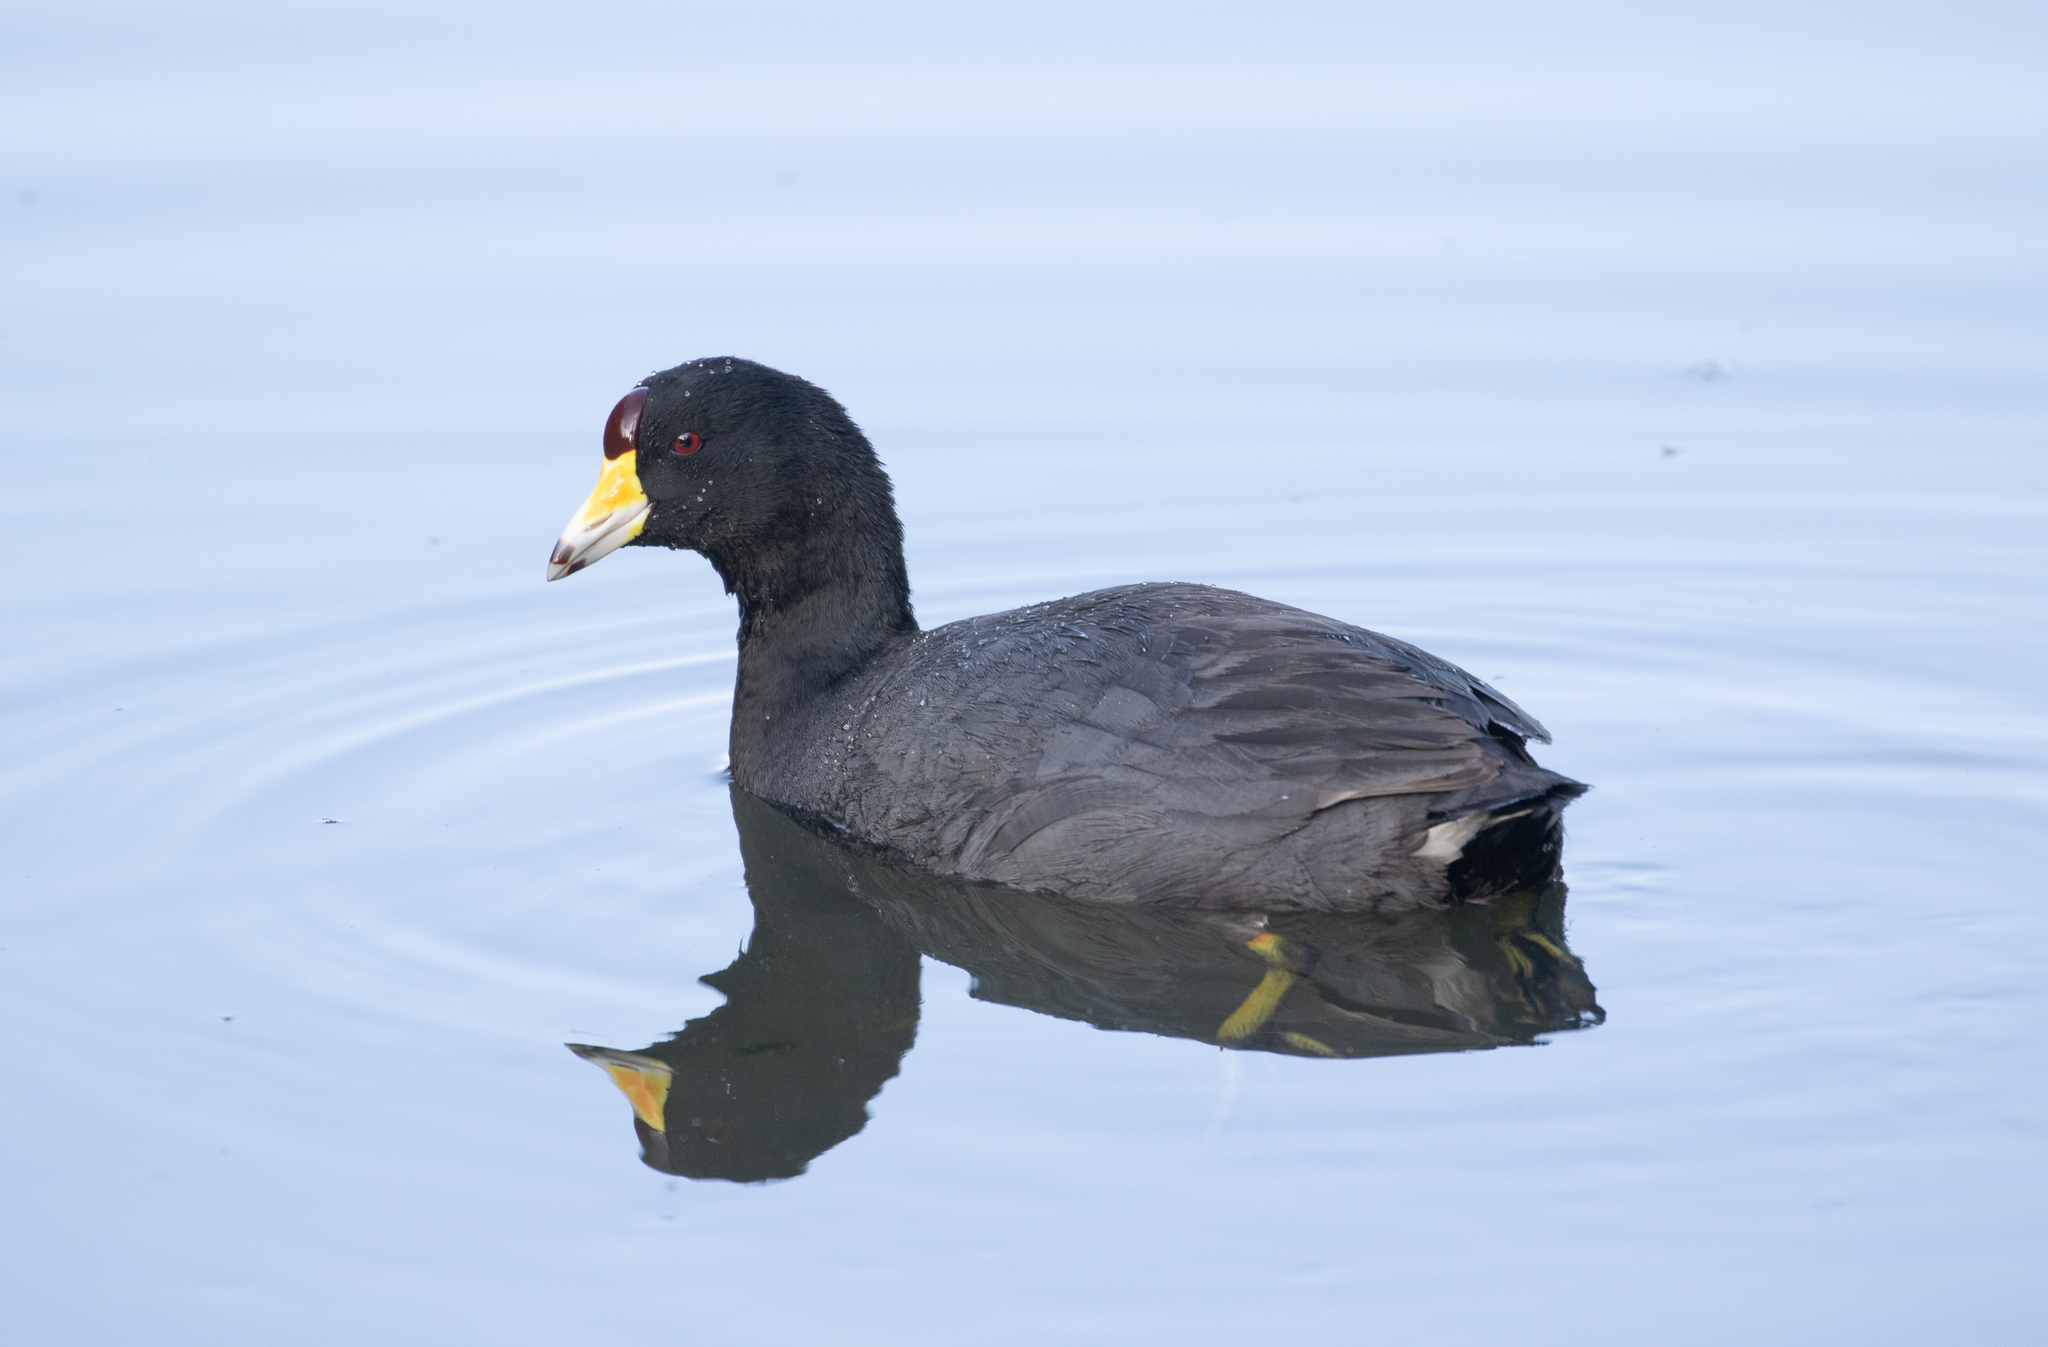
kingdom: Animalia
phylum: Chordata
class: Aves
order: Gruiformes
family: Rallidae
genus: Fulica
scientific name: Fulica americana
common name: American coot
